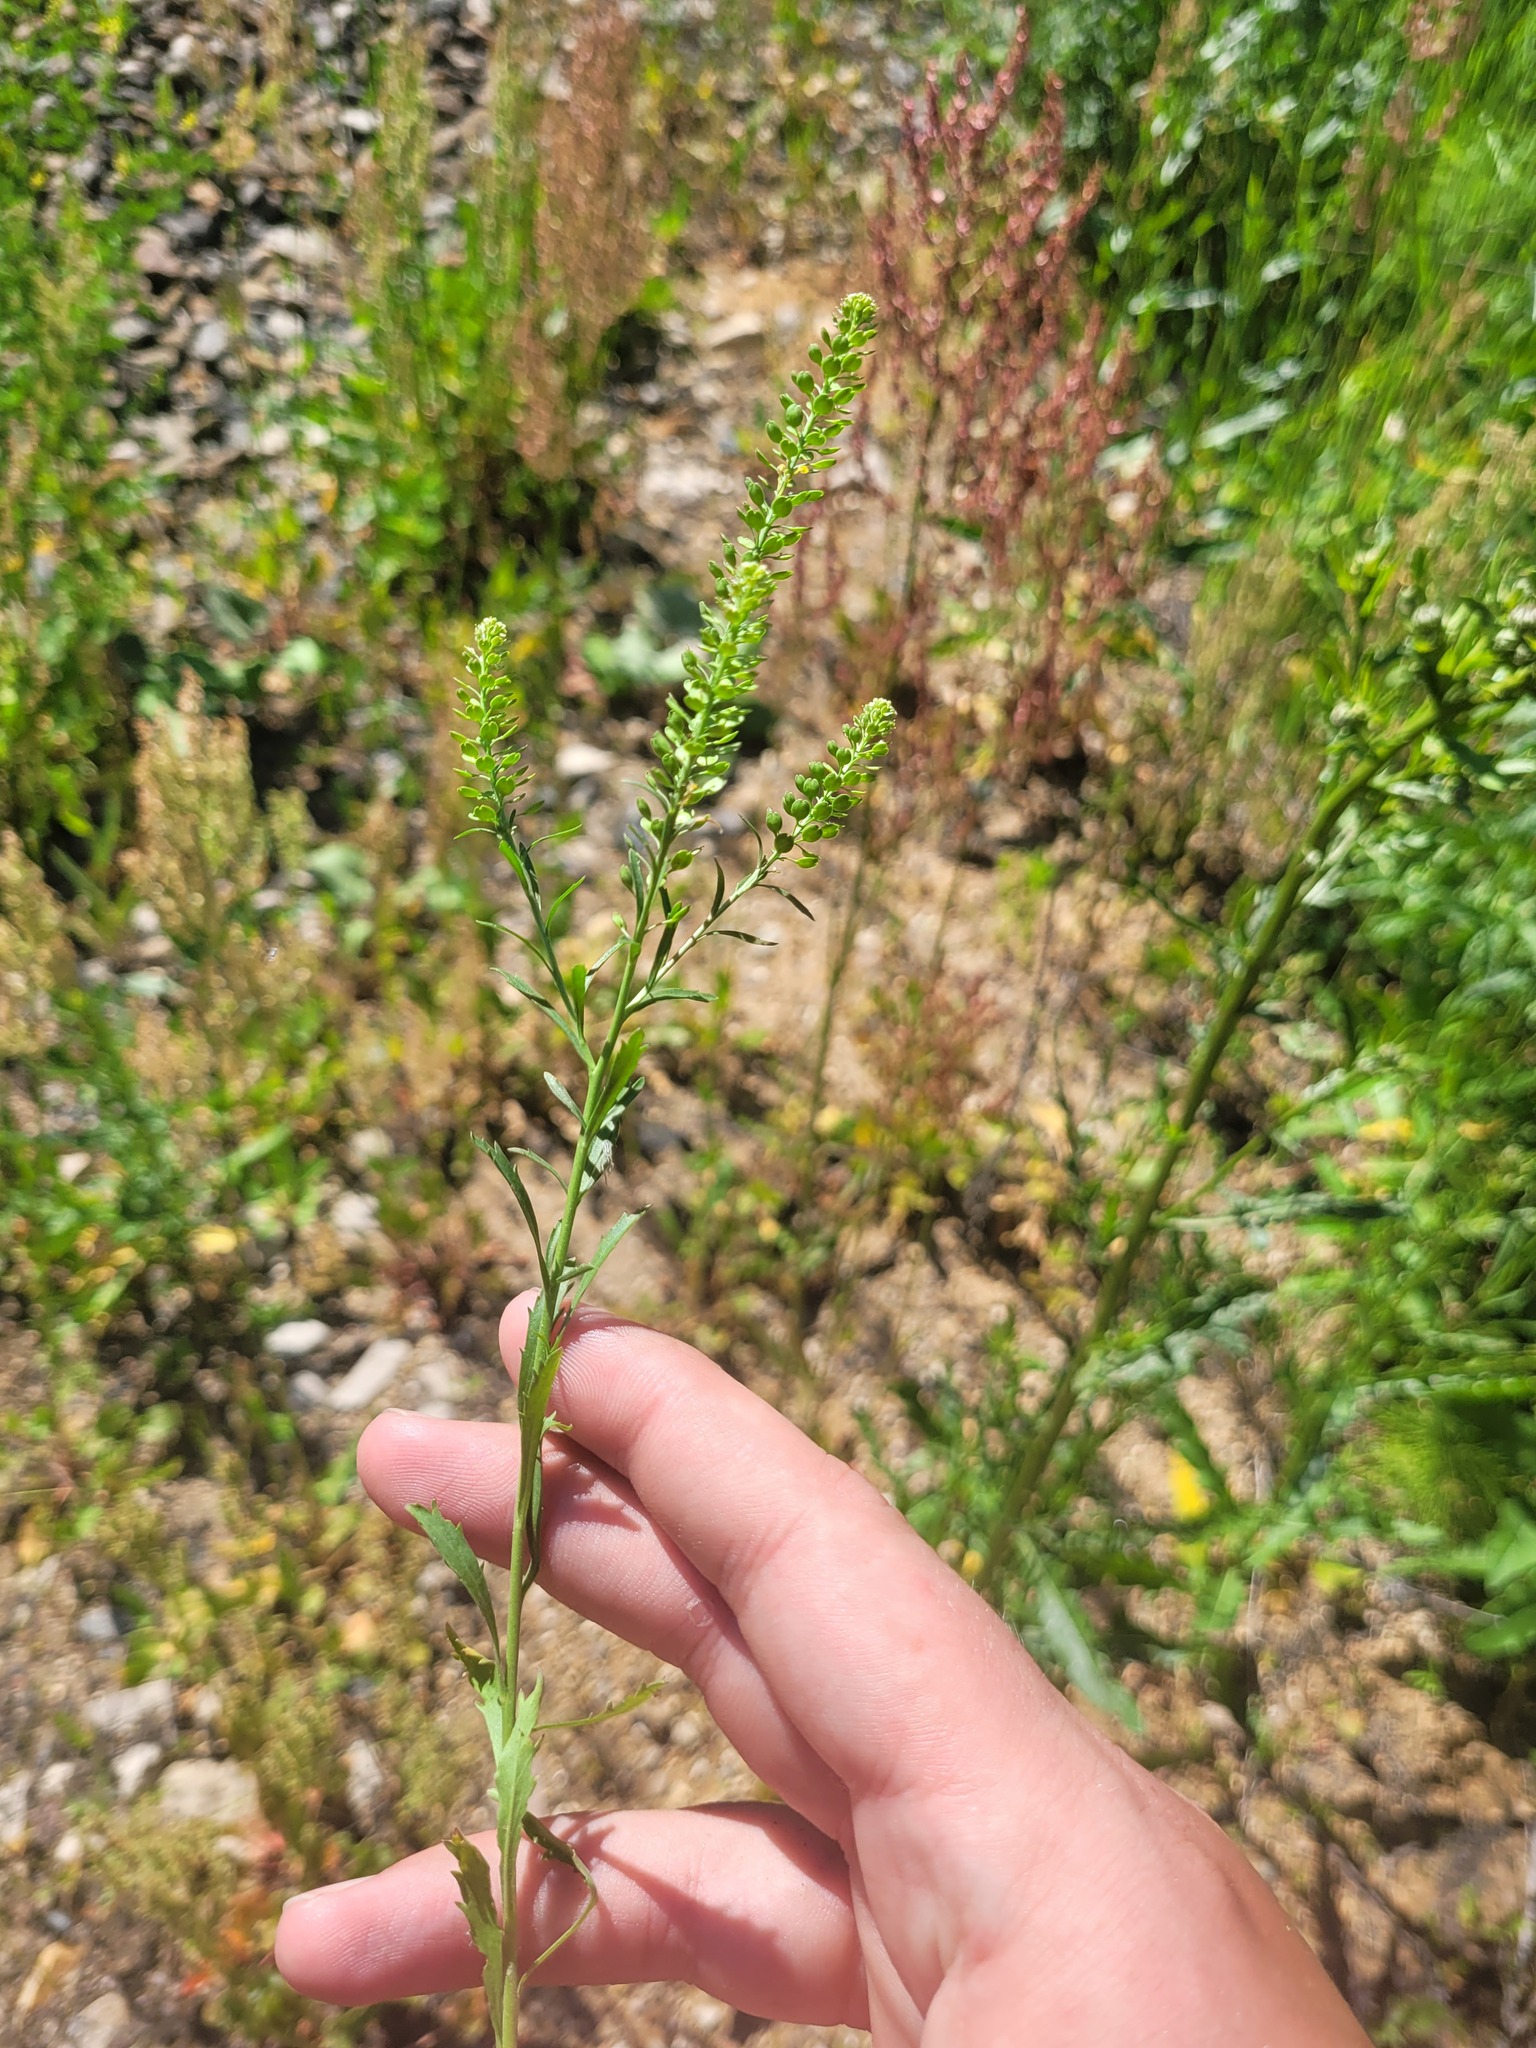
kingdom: Plantae
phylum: Tracheophyta
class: Magnoliopsida
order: Brassicales
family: Brassicaceae
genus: Lepidium
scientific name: Lepidium densiflorum
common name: Miner's pepperwort
